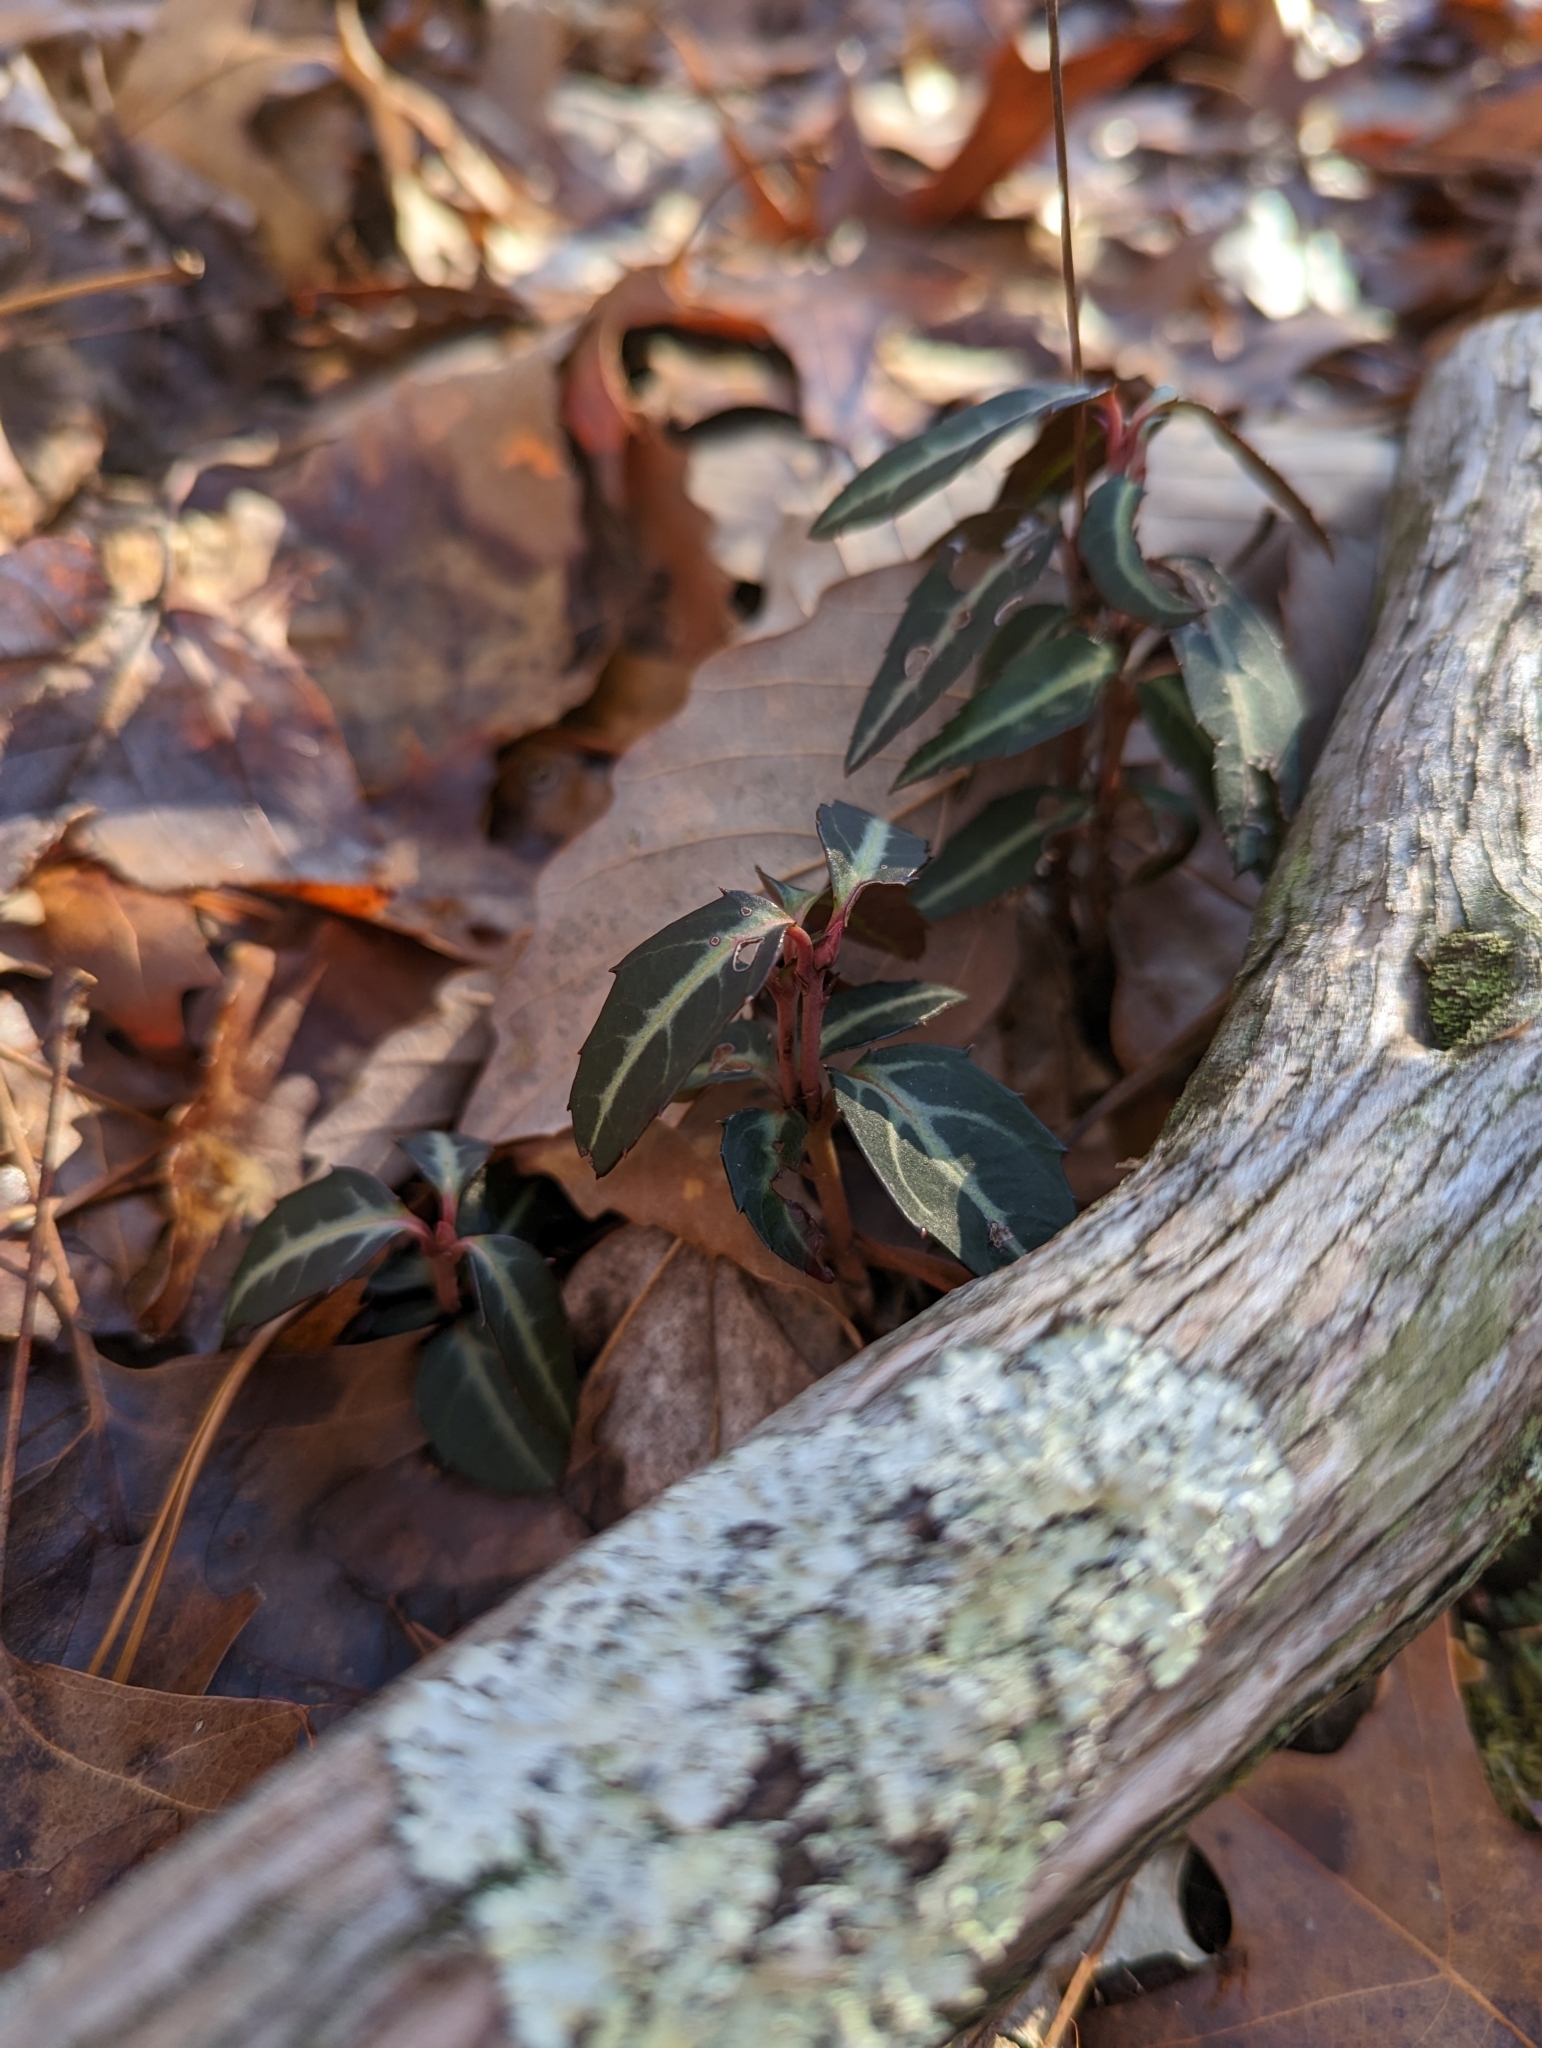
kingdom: Plantae
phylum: Tracheophyta
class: Magnoliopsida
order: Ericales
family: Ericaceae
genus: Chimaphila
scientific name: Chimaphila maculata
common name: Spotted pipsissewa
